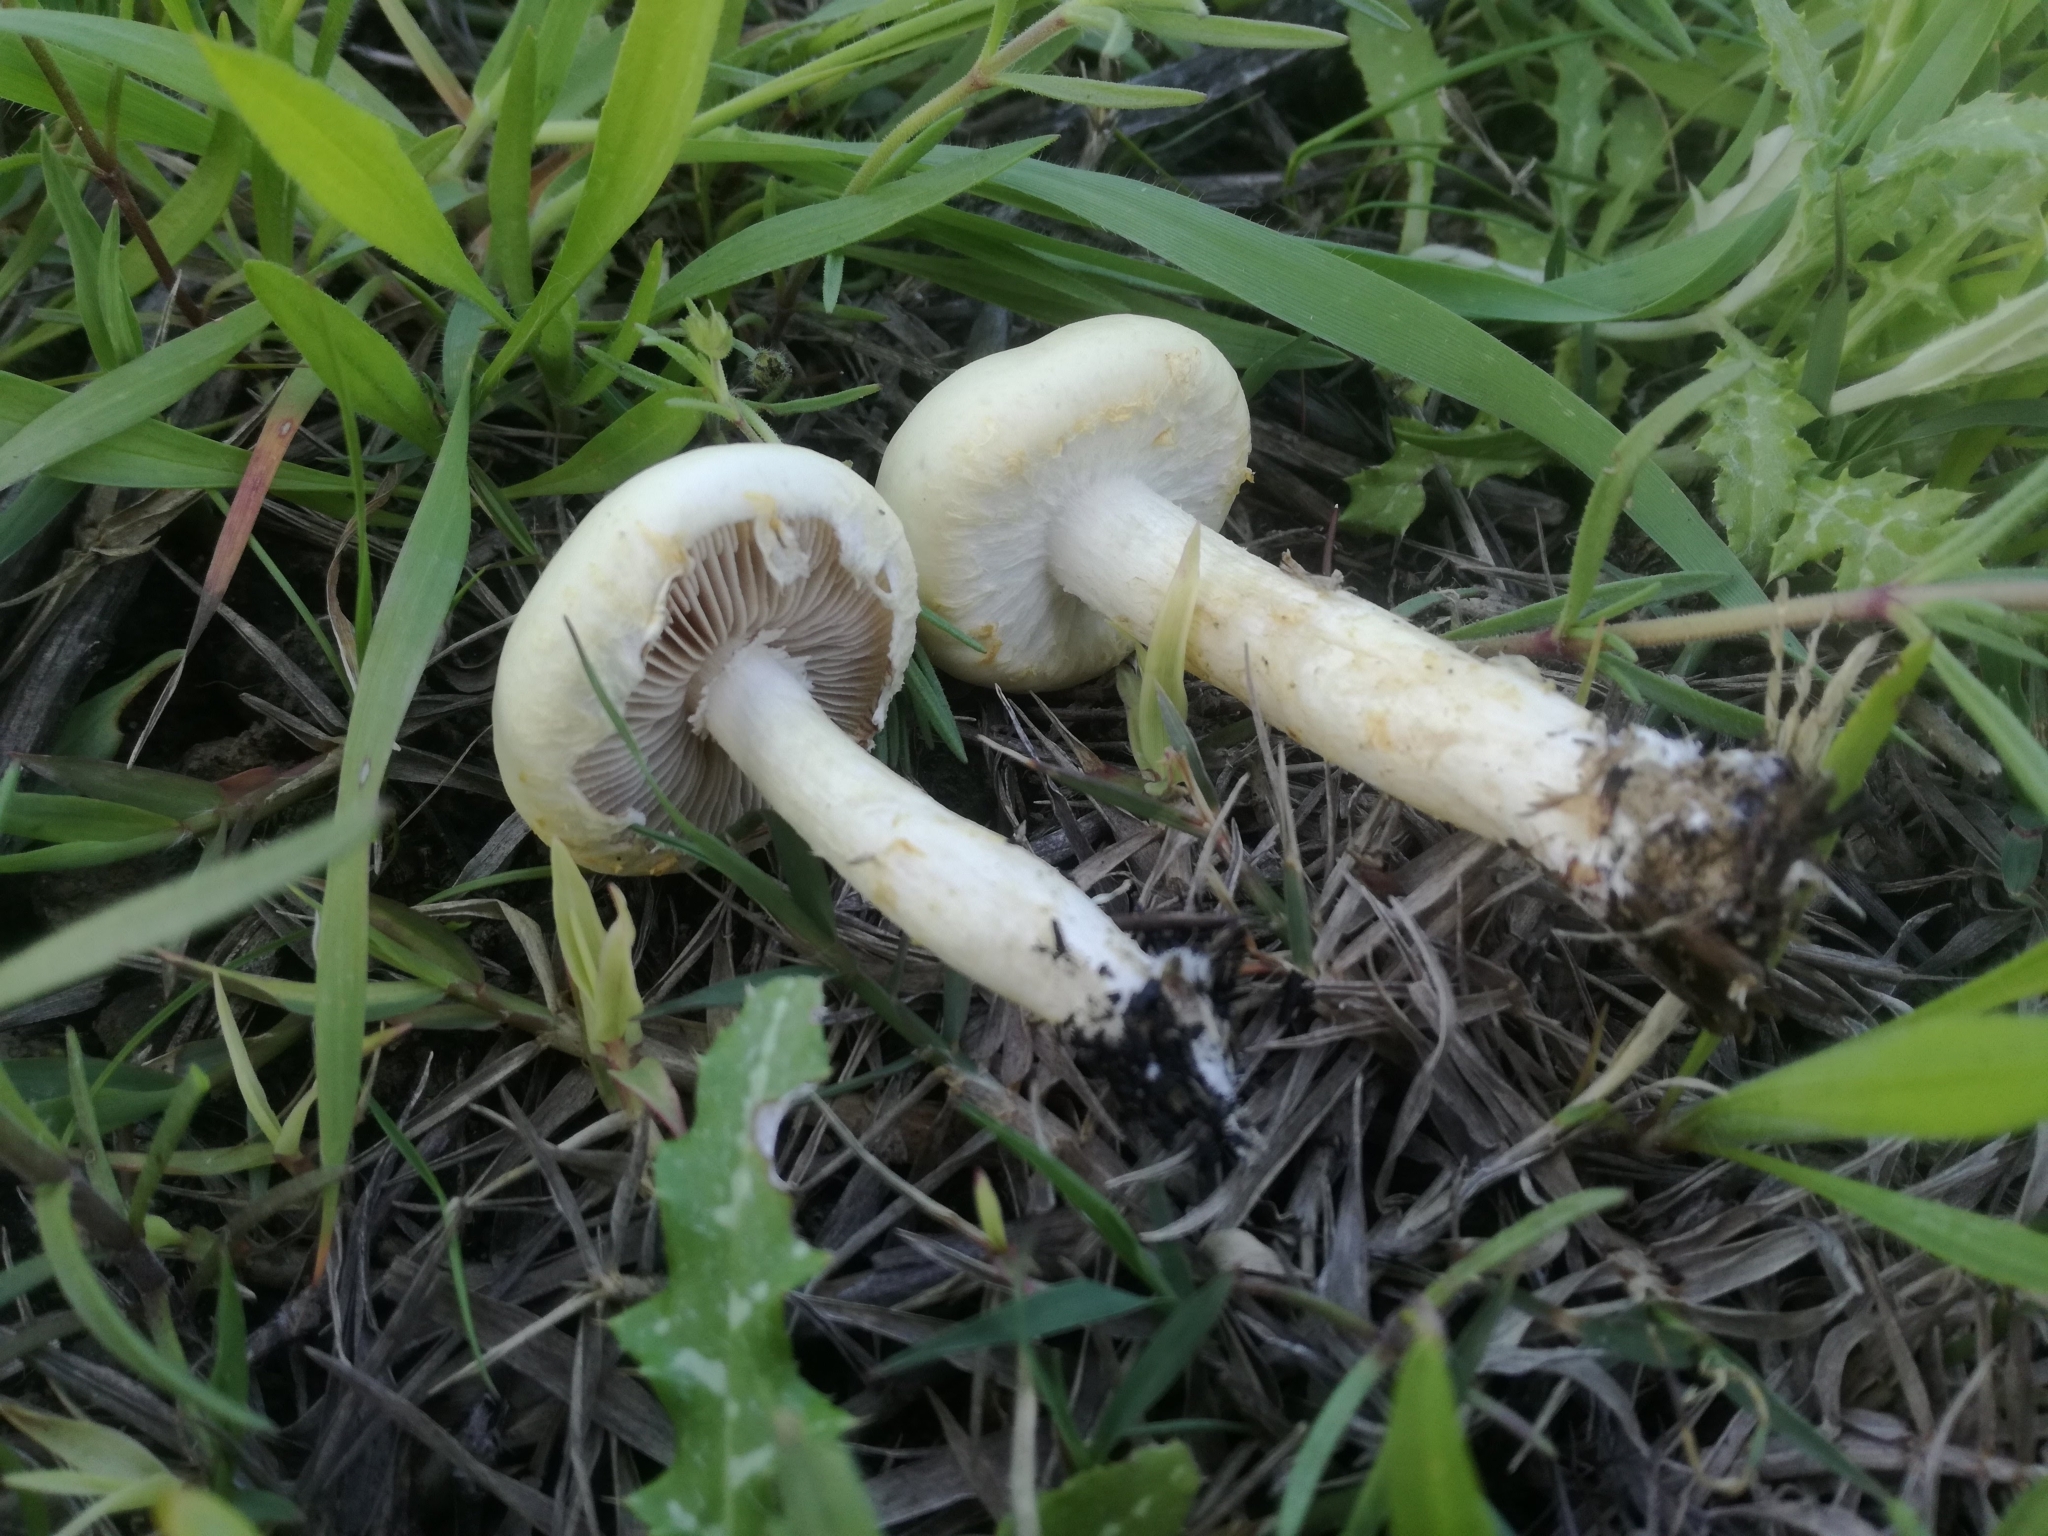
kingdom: Fungi
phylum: Basidiomycota
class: Agaricomycetes
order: Agaricales
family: Strophariaceae
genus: Agrocybe
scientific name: Agrocybe molesta
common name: Bearded fieldcap
